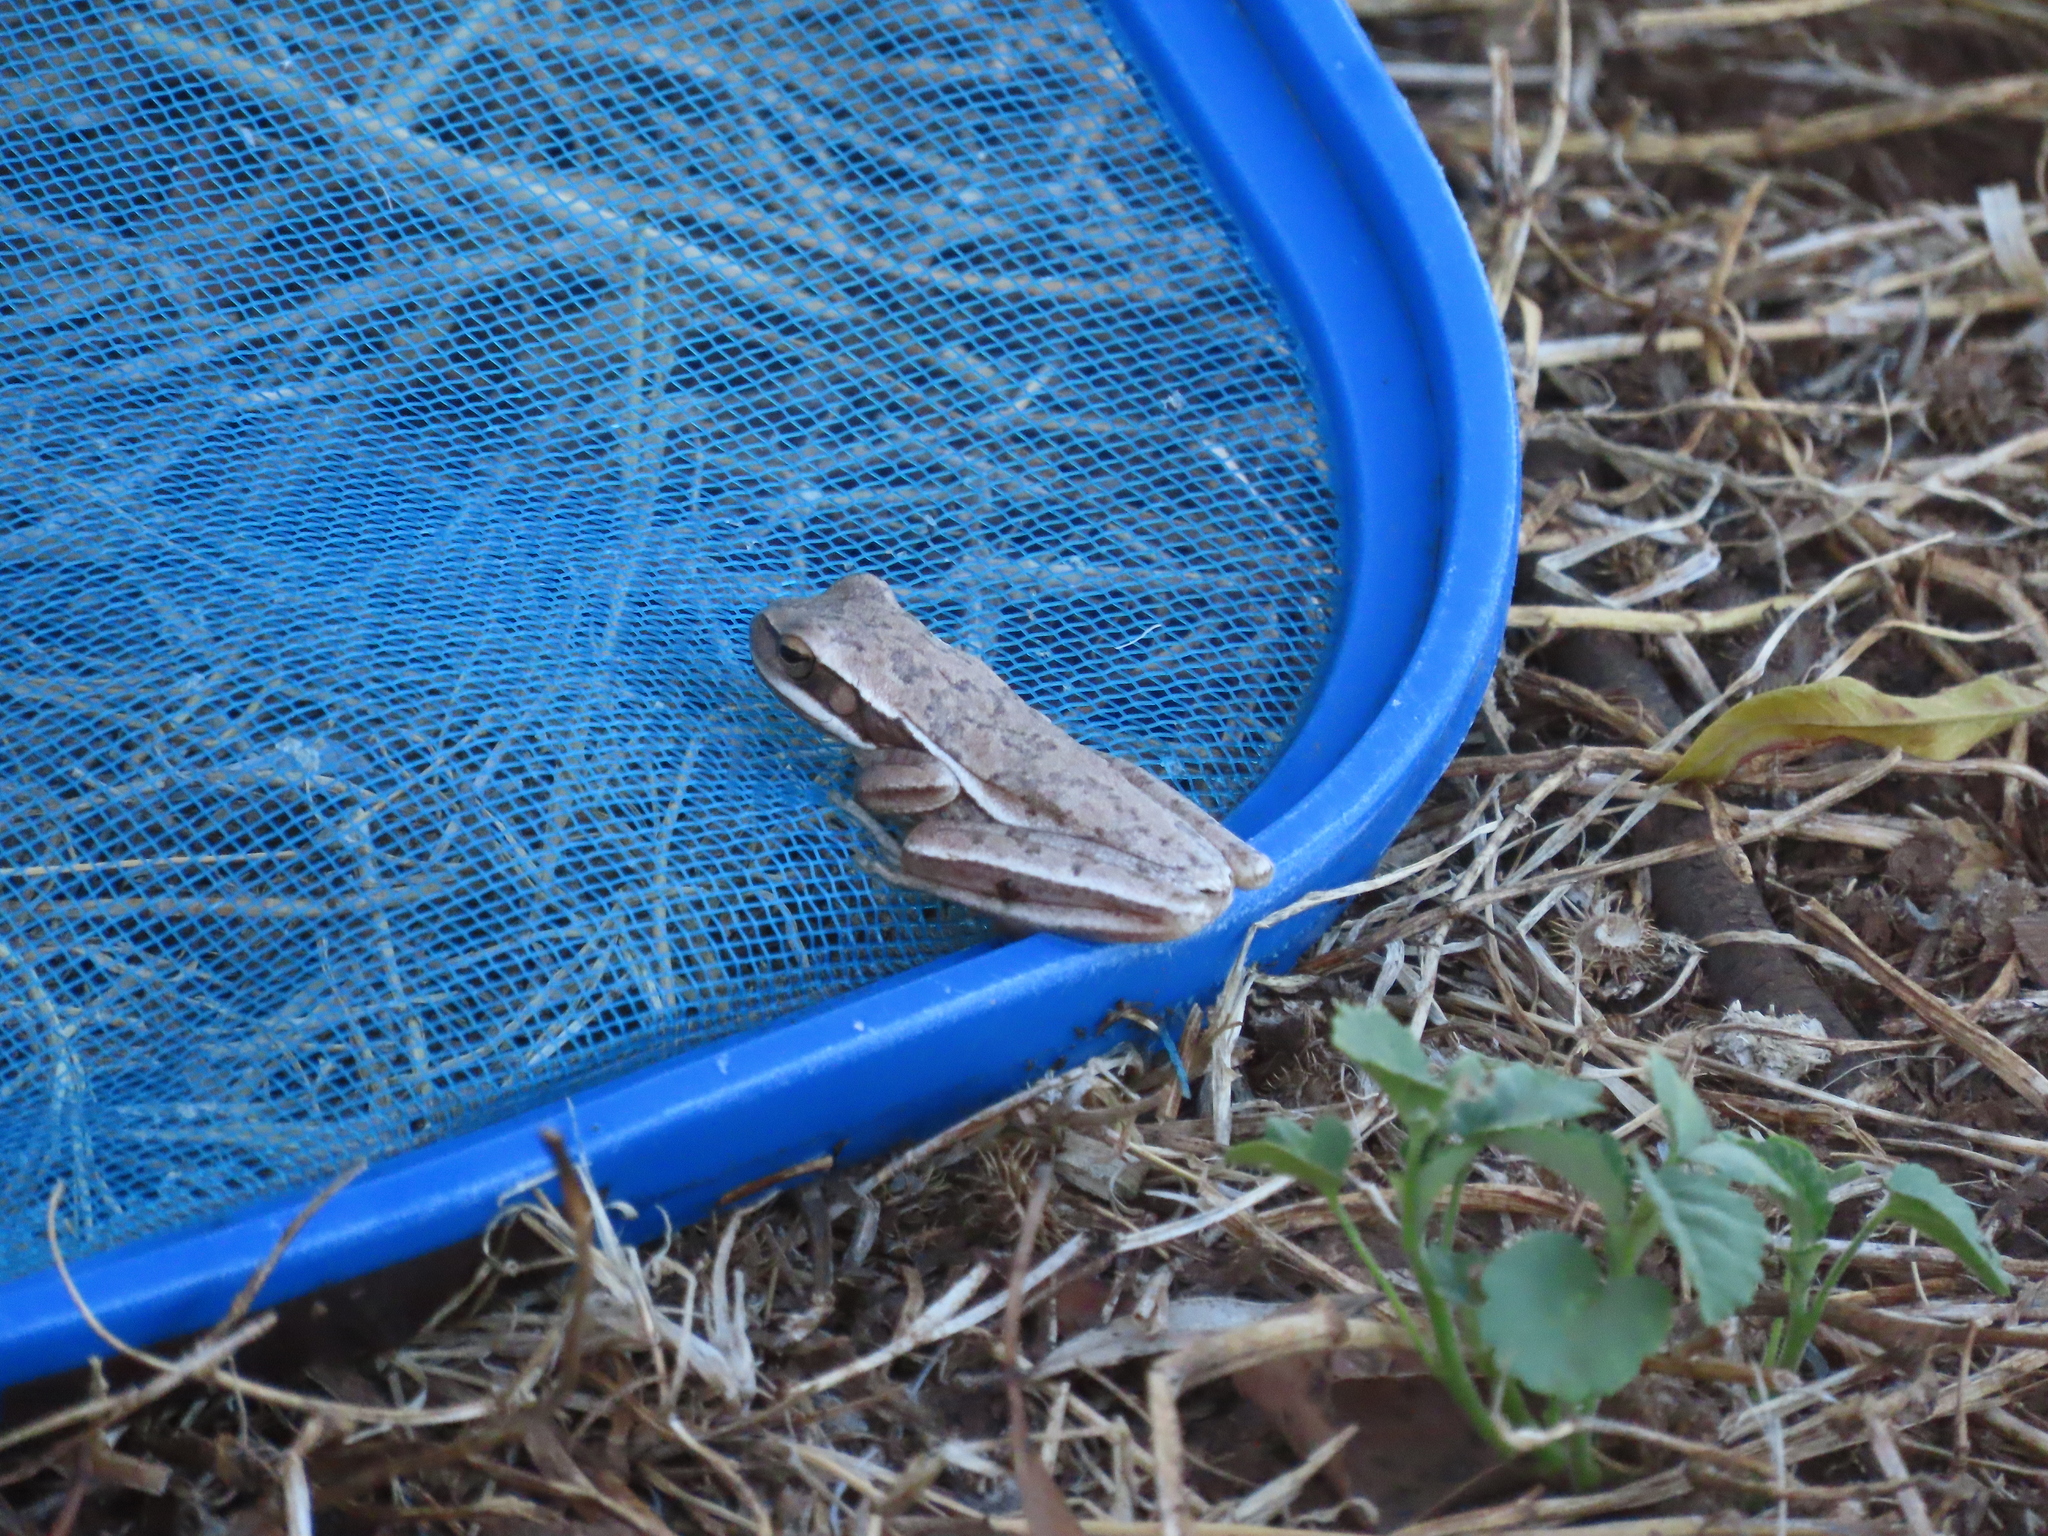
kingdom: Animalia
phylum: Chordata
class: Amphibia
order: Anura
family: Hylidae
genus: Boana
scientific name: Boana pulchella
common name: Montevideo treefrog
